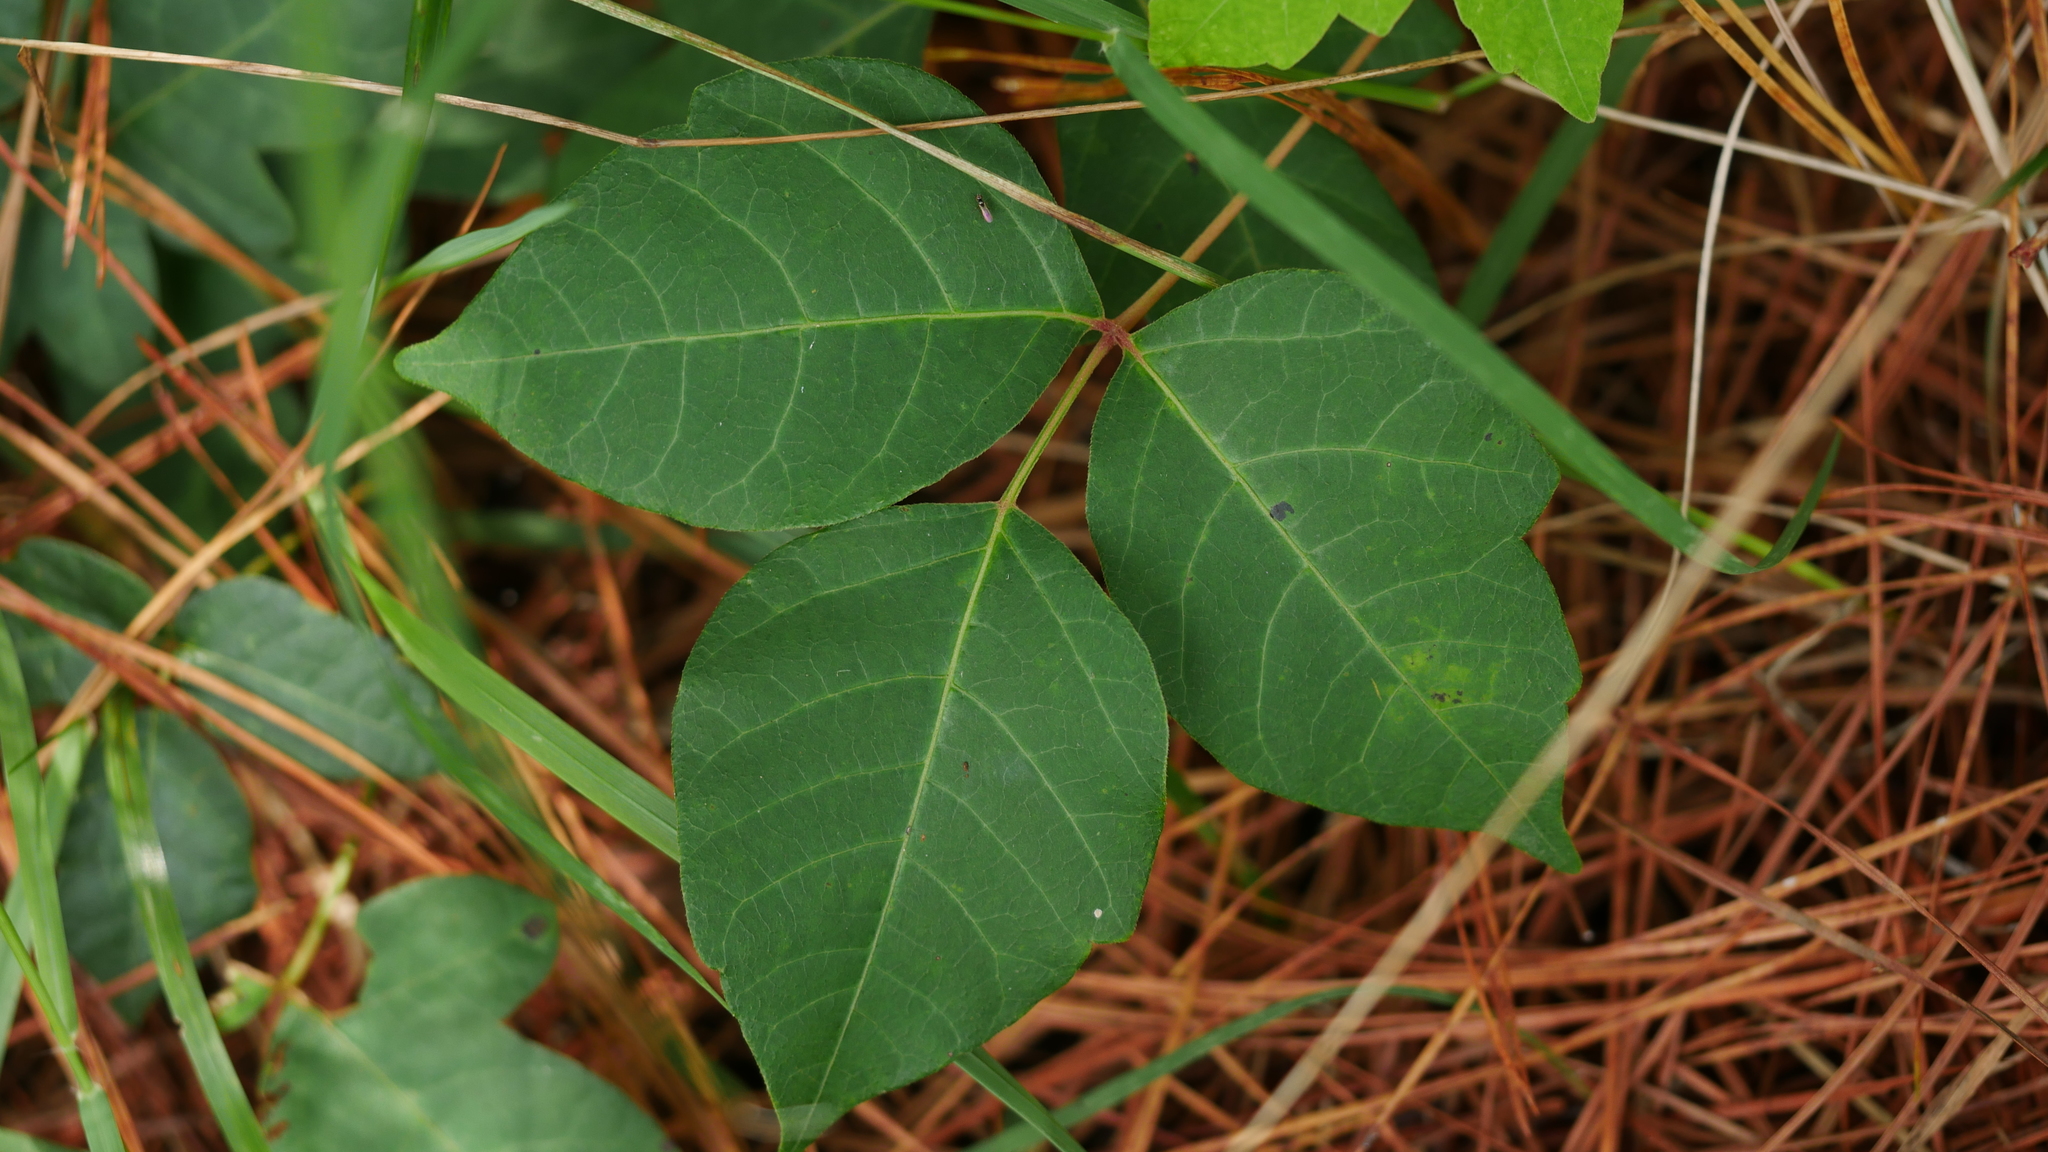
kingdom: Plantae
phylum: Tracheophyta
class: Magnoliopsida
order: Sapindales
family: Anacardiaceae
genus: Toxicodendron
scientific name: Toxicodendron radicans
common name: Poison ivy
